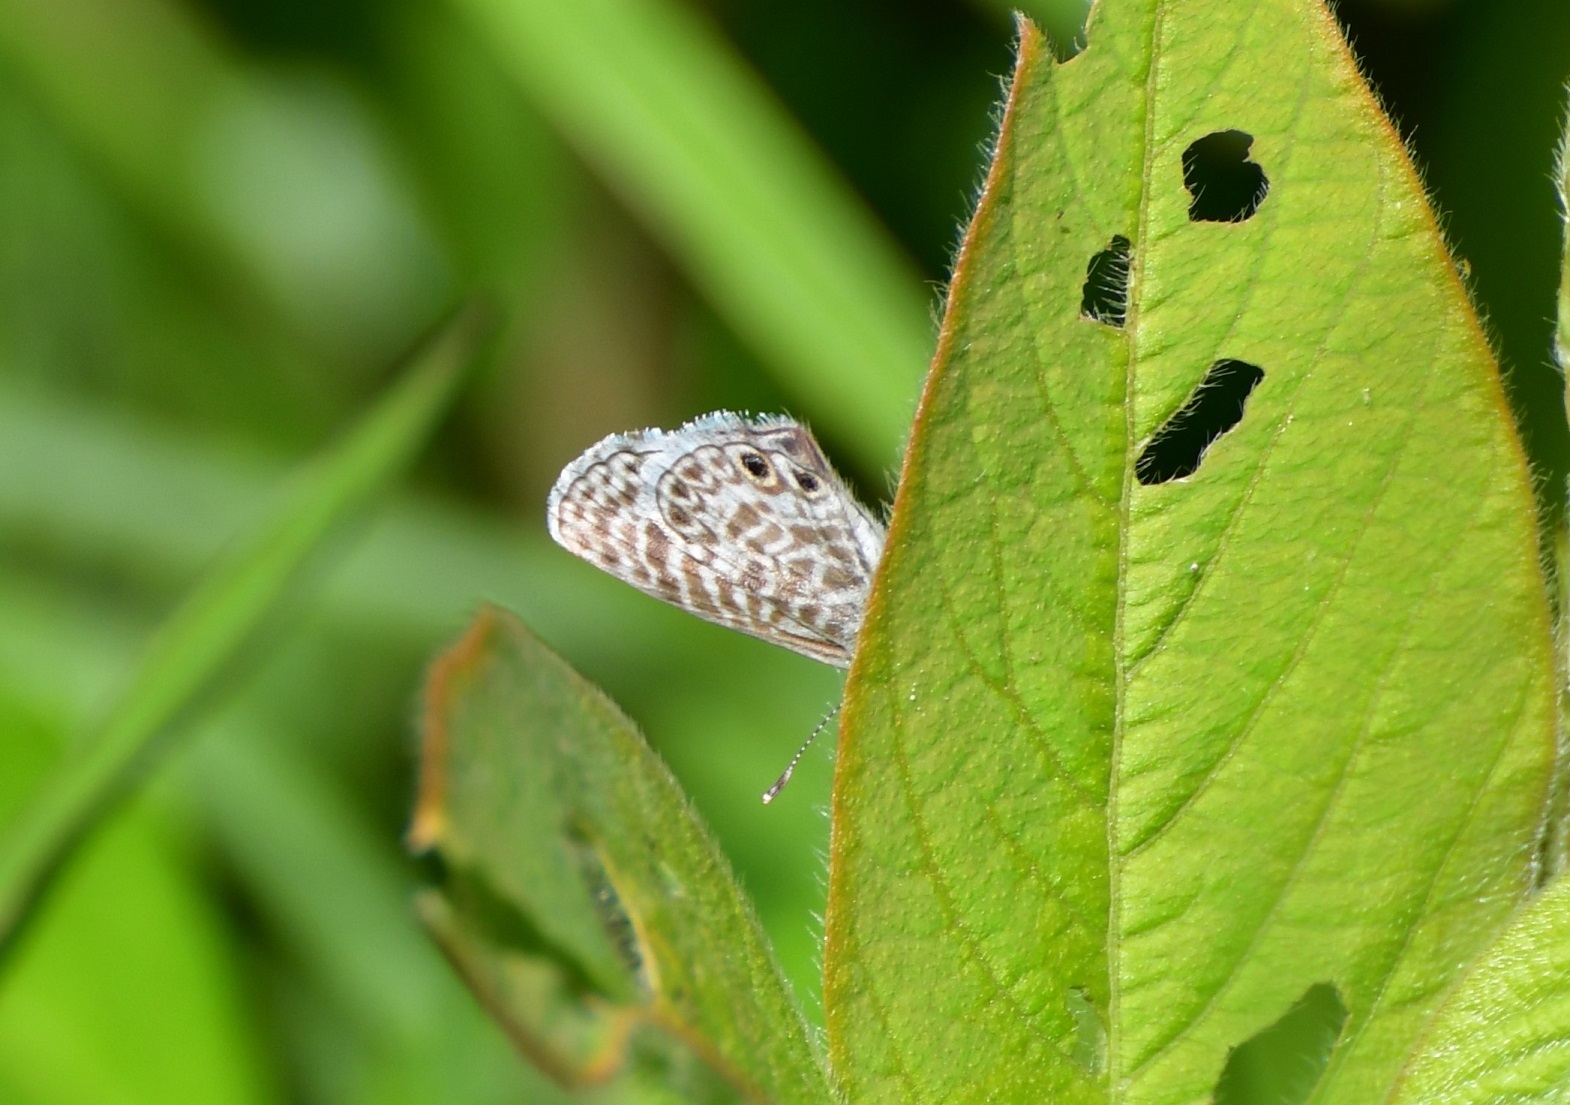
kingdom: Animalia
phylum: Arthropoda
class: Insecta
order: Lepidoptera
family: Lycaenidae
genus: Leptotes
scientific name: Leptotes marina
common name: Marine blue
